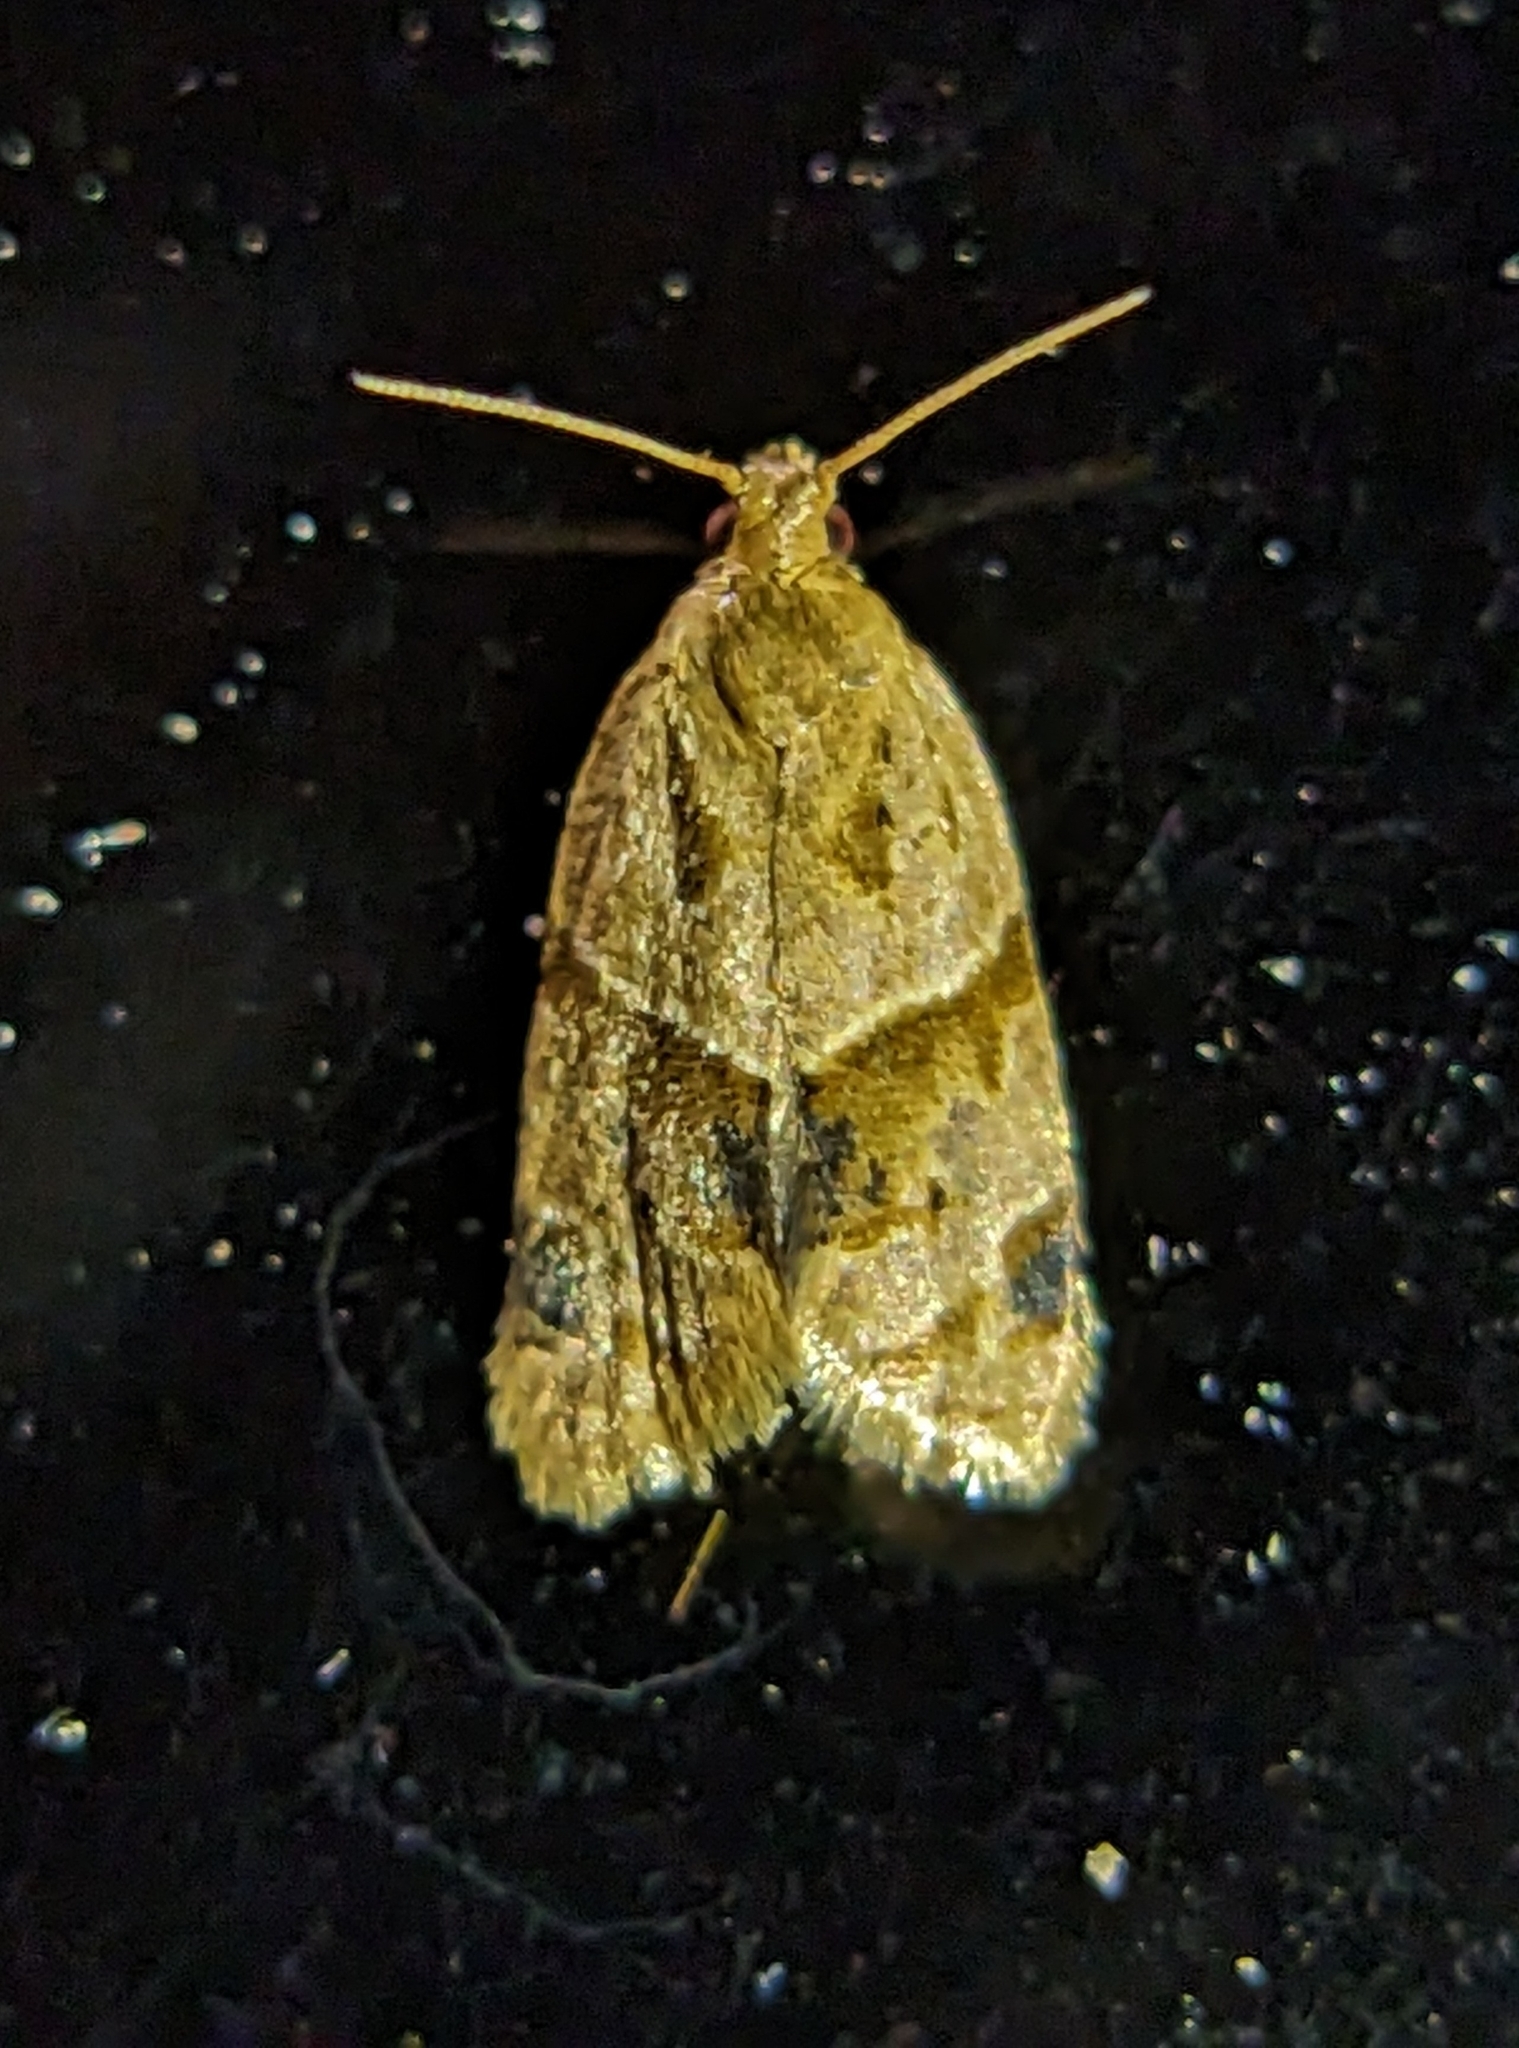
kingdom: Animalia
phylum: Arthropoda
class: Insecta
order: Lepidoptera
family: Tortricidae
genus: Clepsis
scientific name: Clepsis peritana
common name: Garden tortrix
